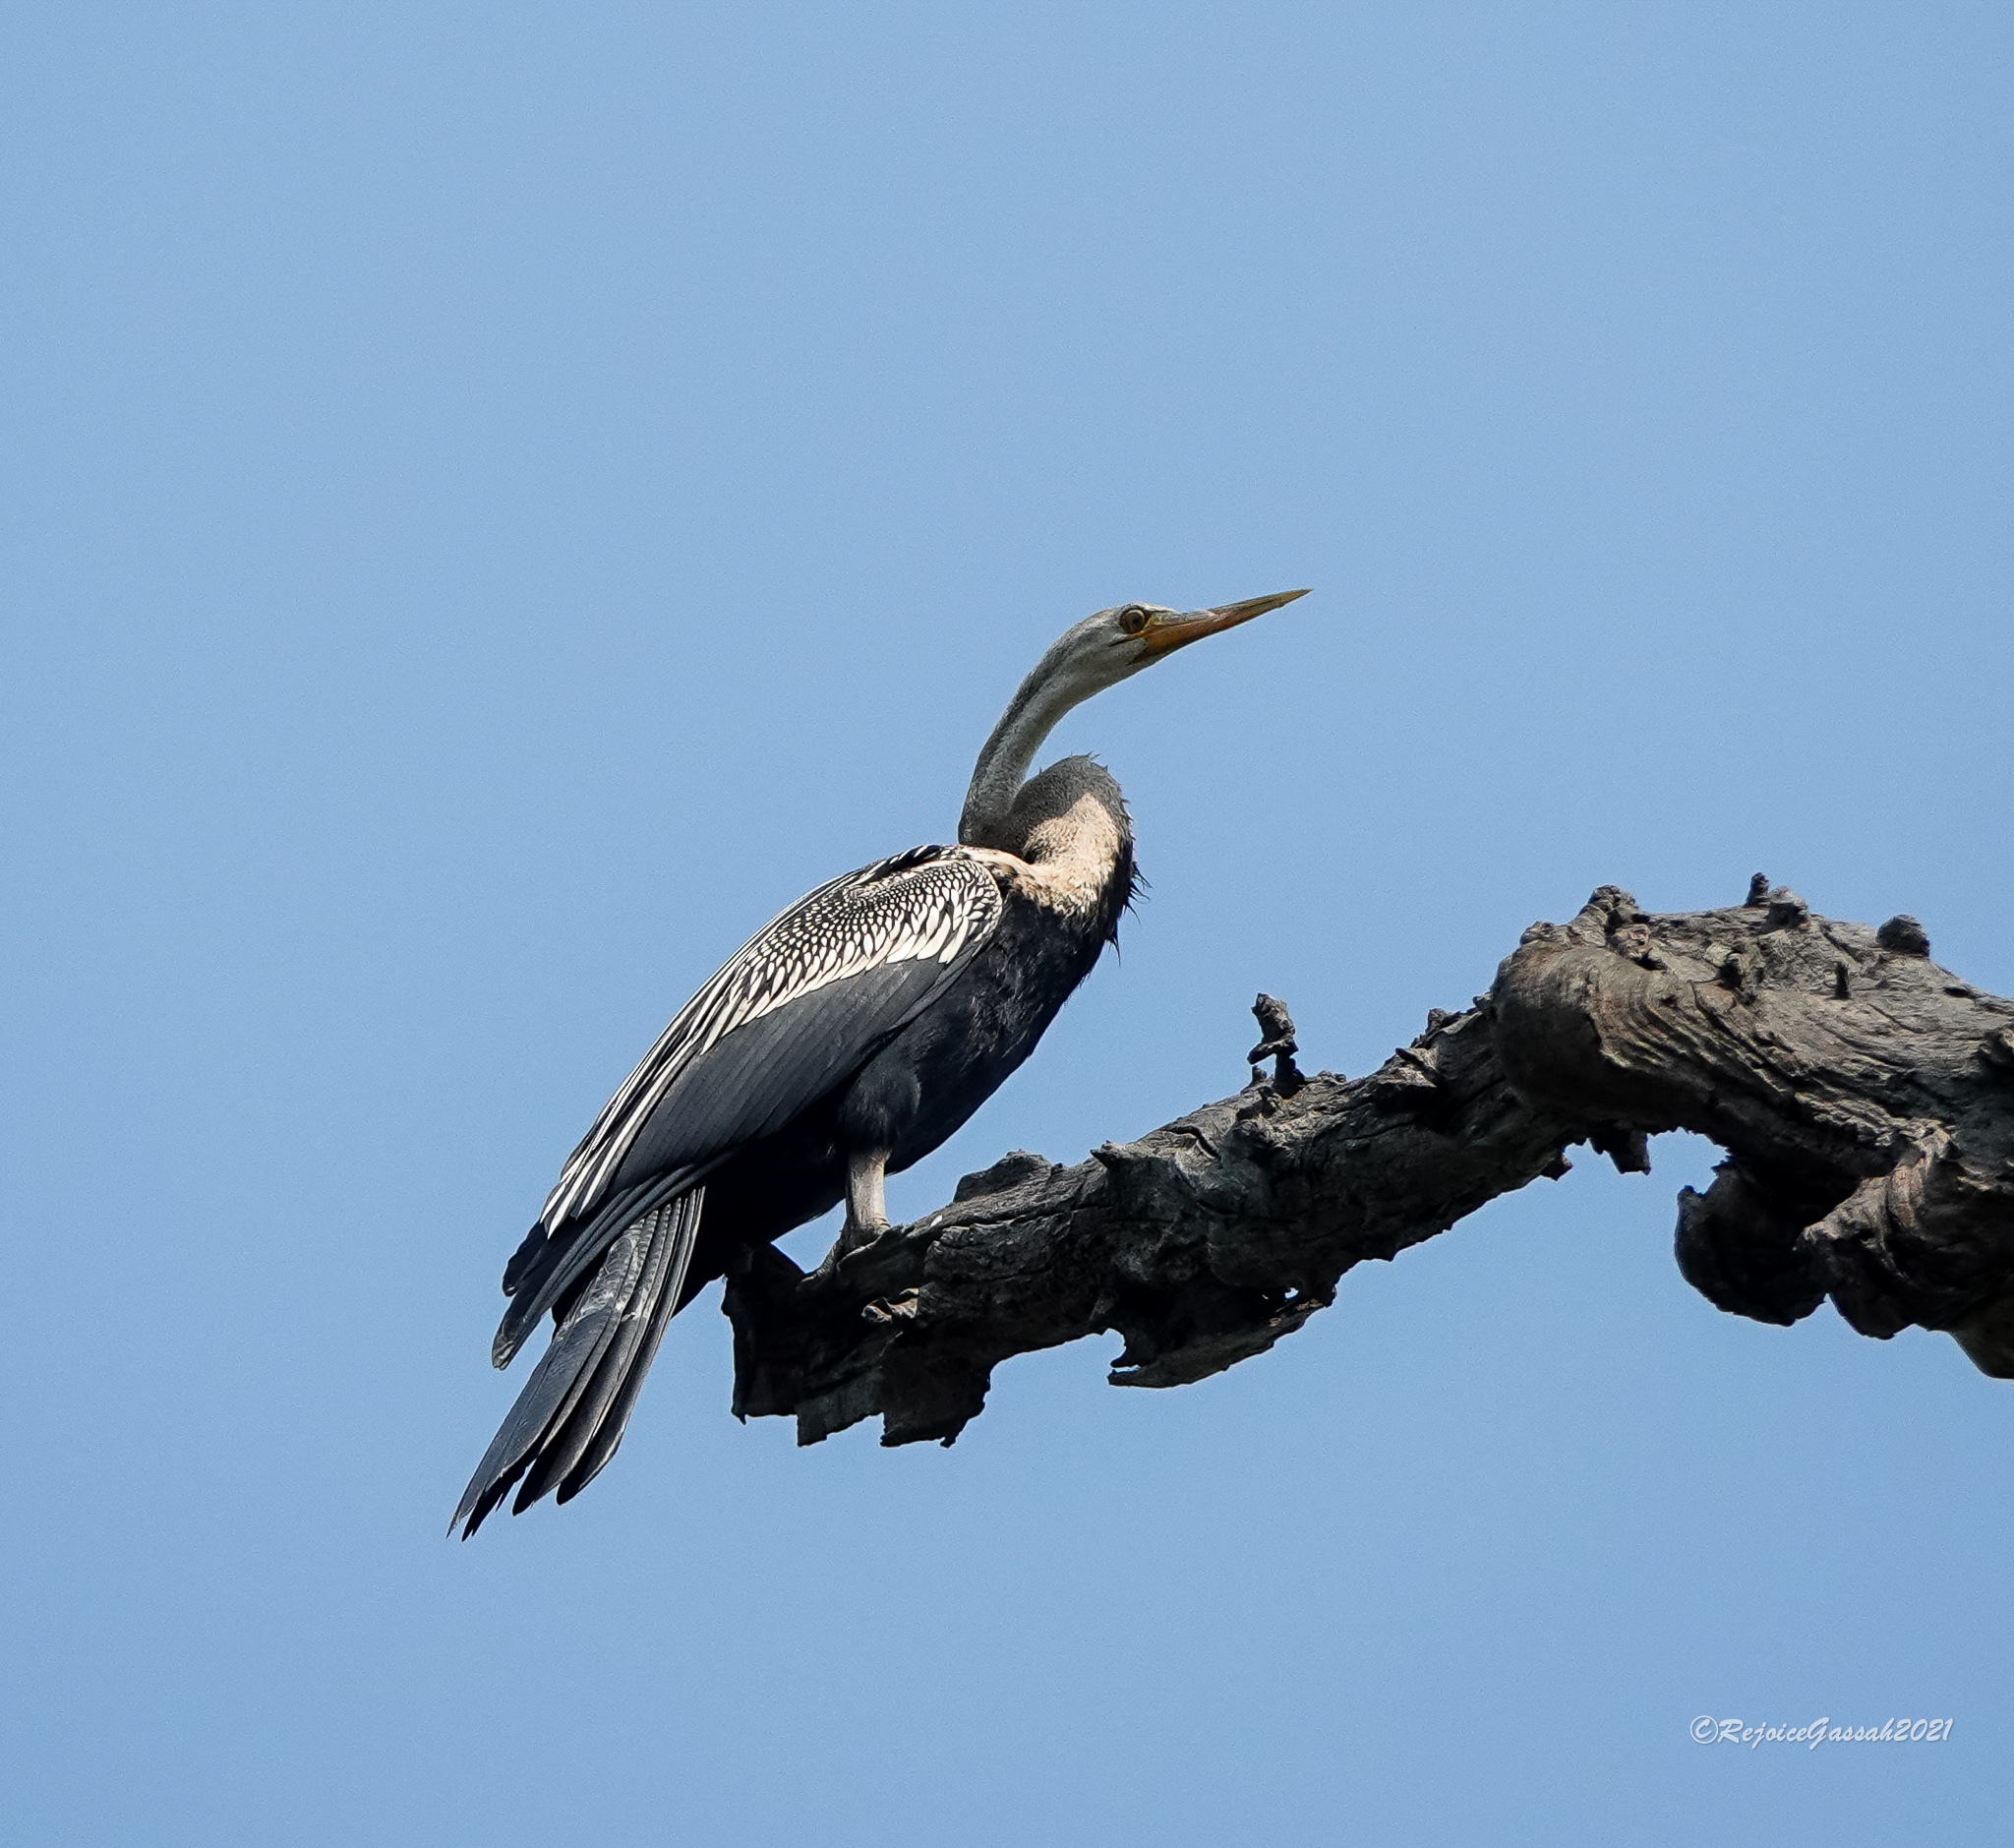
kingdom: Animalia
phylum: Chordata
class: Aves
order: Suliformes
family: Anhingidae
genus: Anhinga
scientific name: Anhinga melanogaster
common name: Oriental darter
